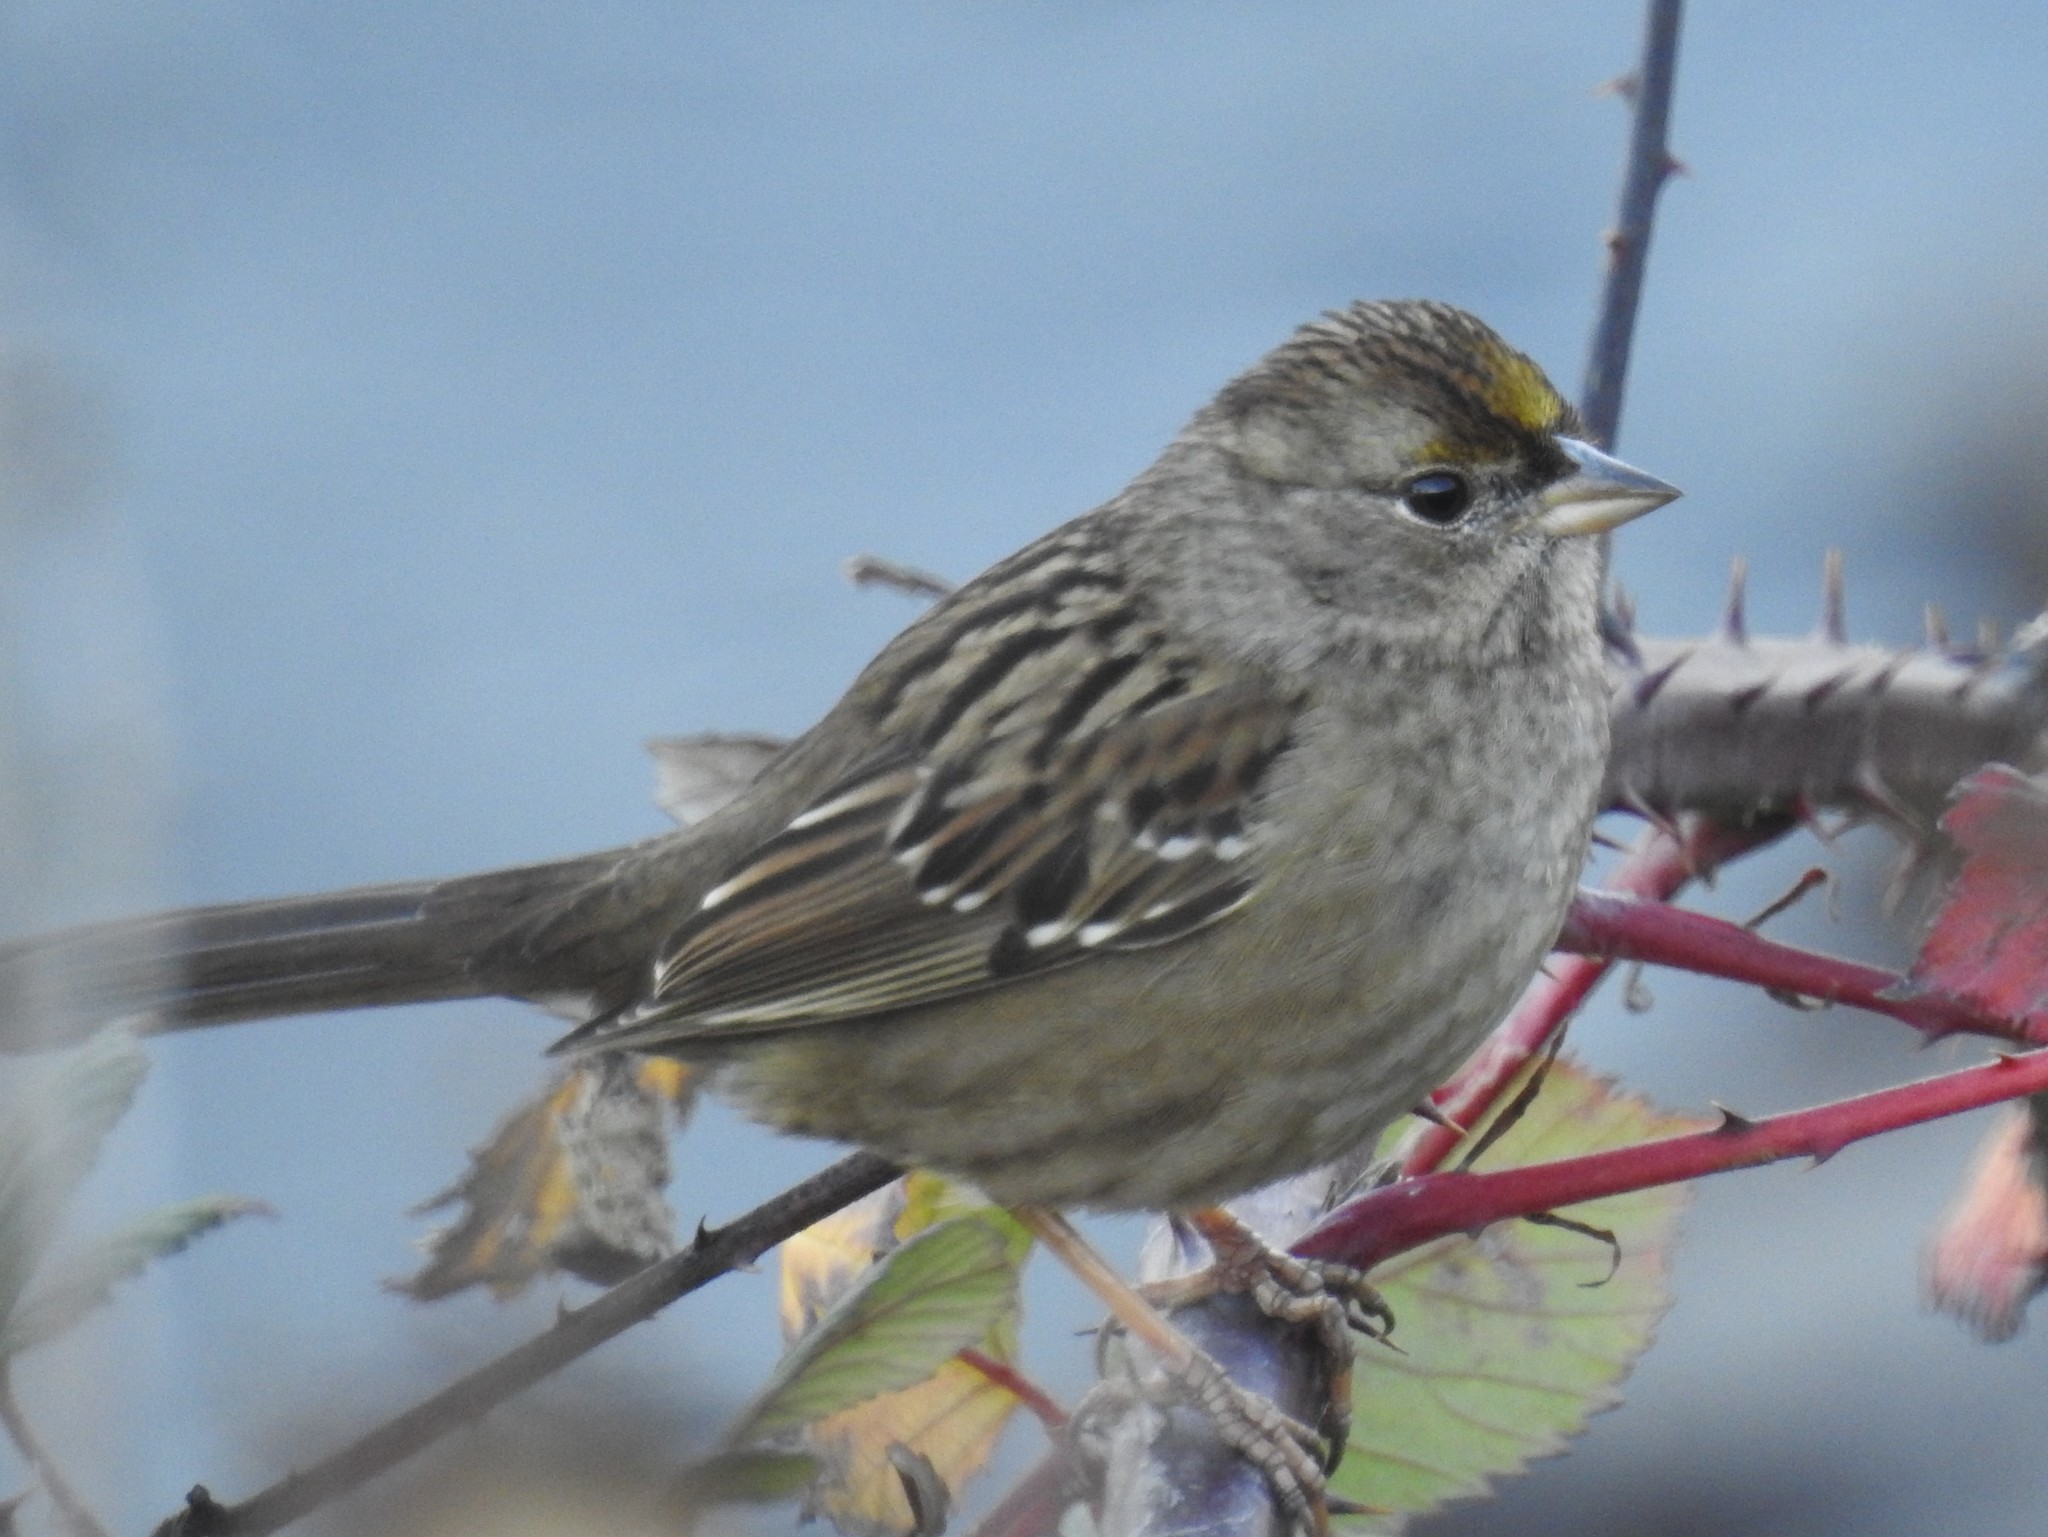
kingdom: Animalia
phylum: Chordata
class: Aves
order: Passeriformes
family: Passerellidae
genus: Zonotrichia
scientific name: Zonotrichia atricapilla
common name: Golden-crowned sparrow
